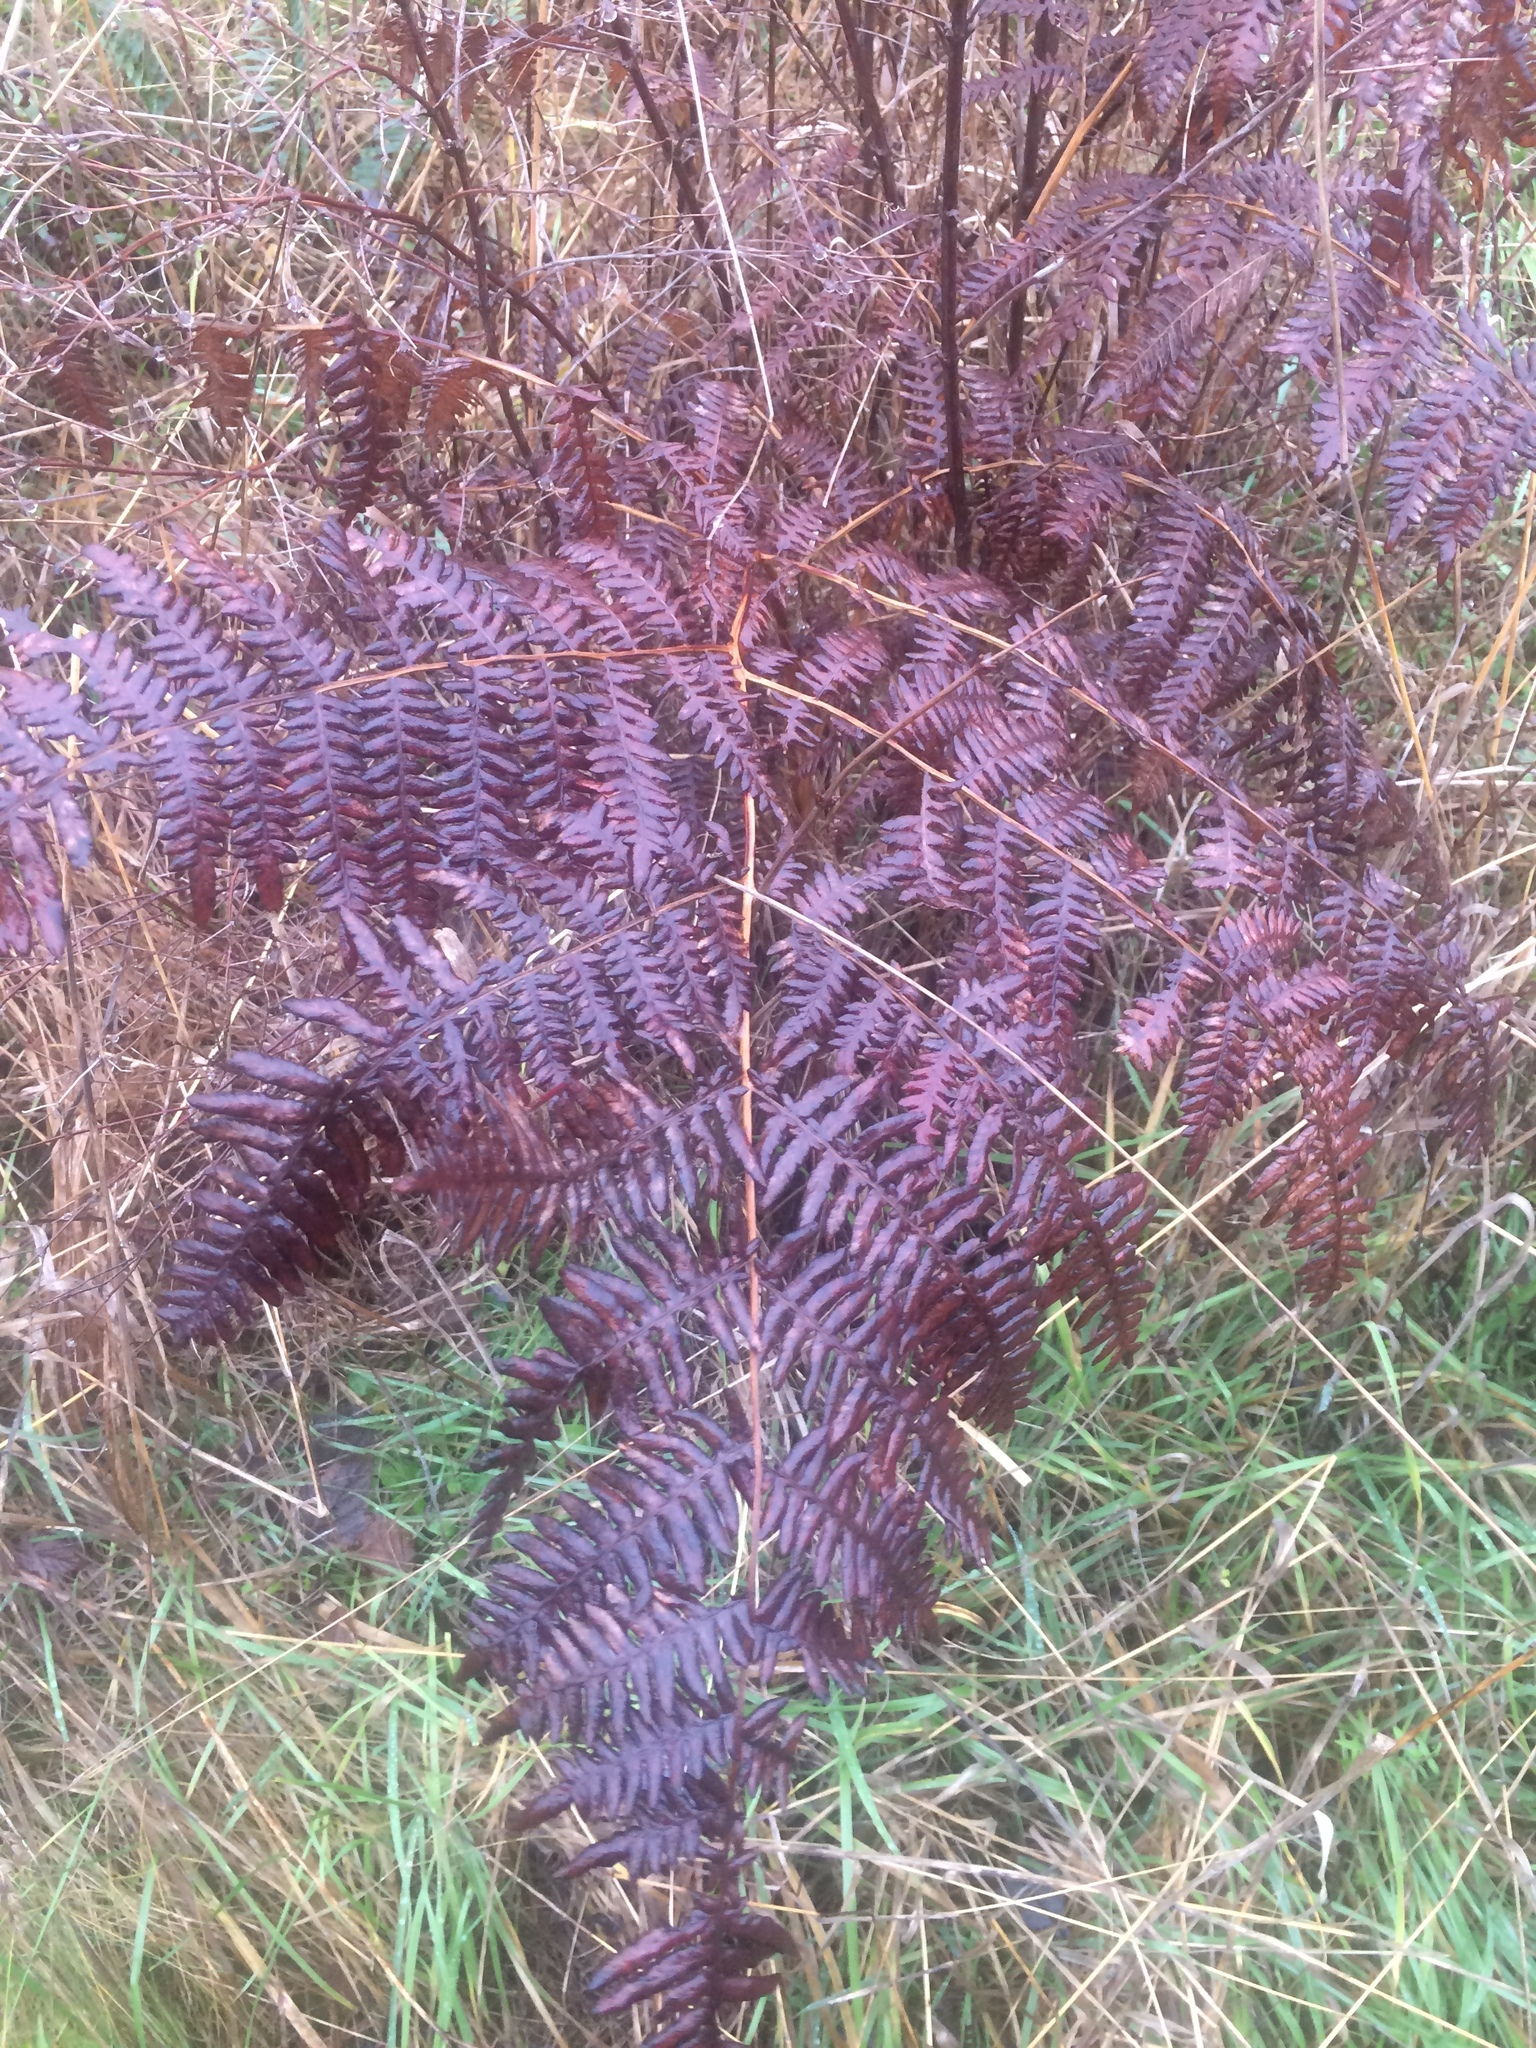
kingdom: Plantae
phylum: Tracheophyta
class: Polypodiopsida
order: Polypodiales
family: Dennstaedtiaceae
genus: Pteridium
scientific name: Pteridium aquilinum
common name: Bracken
